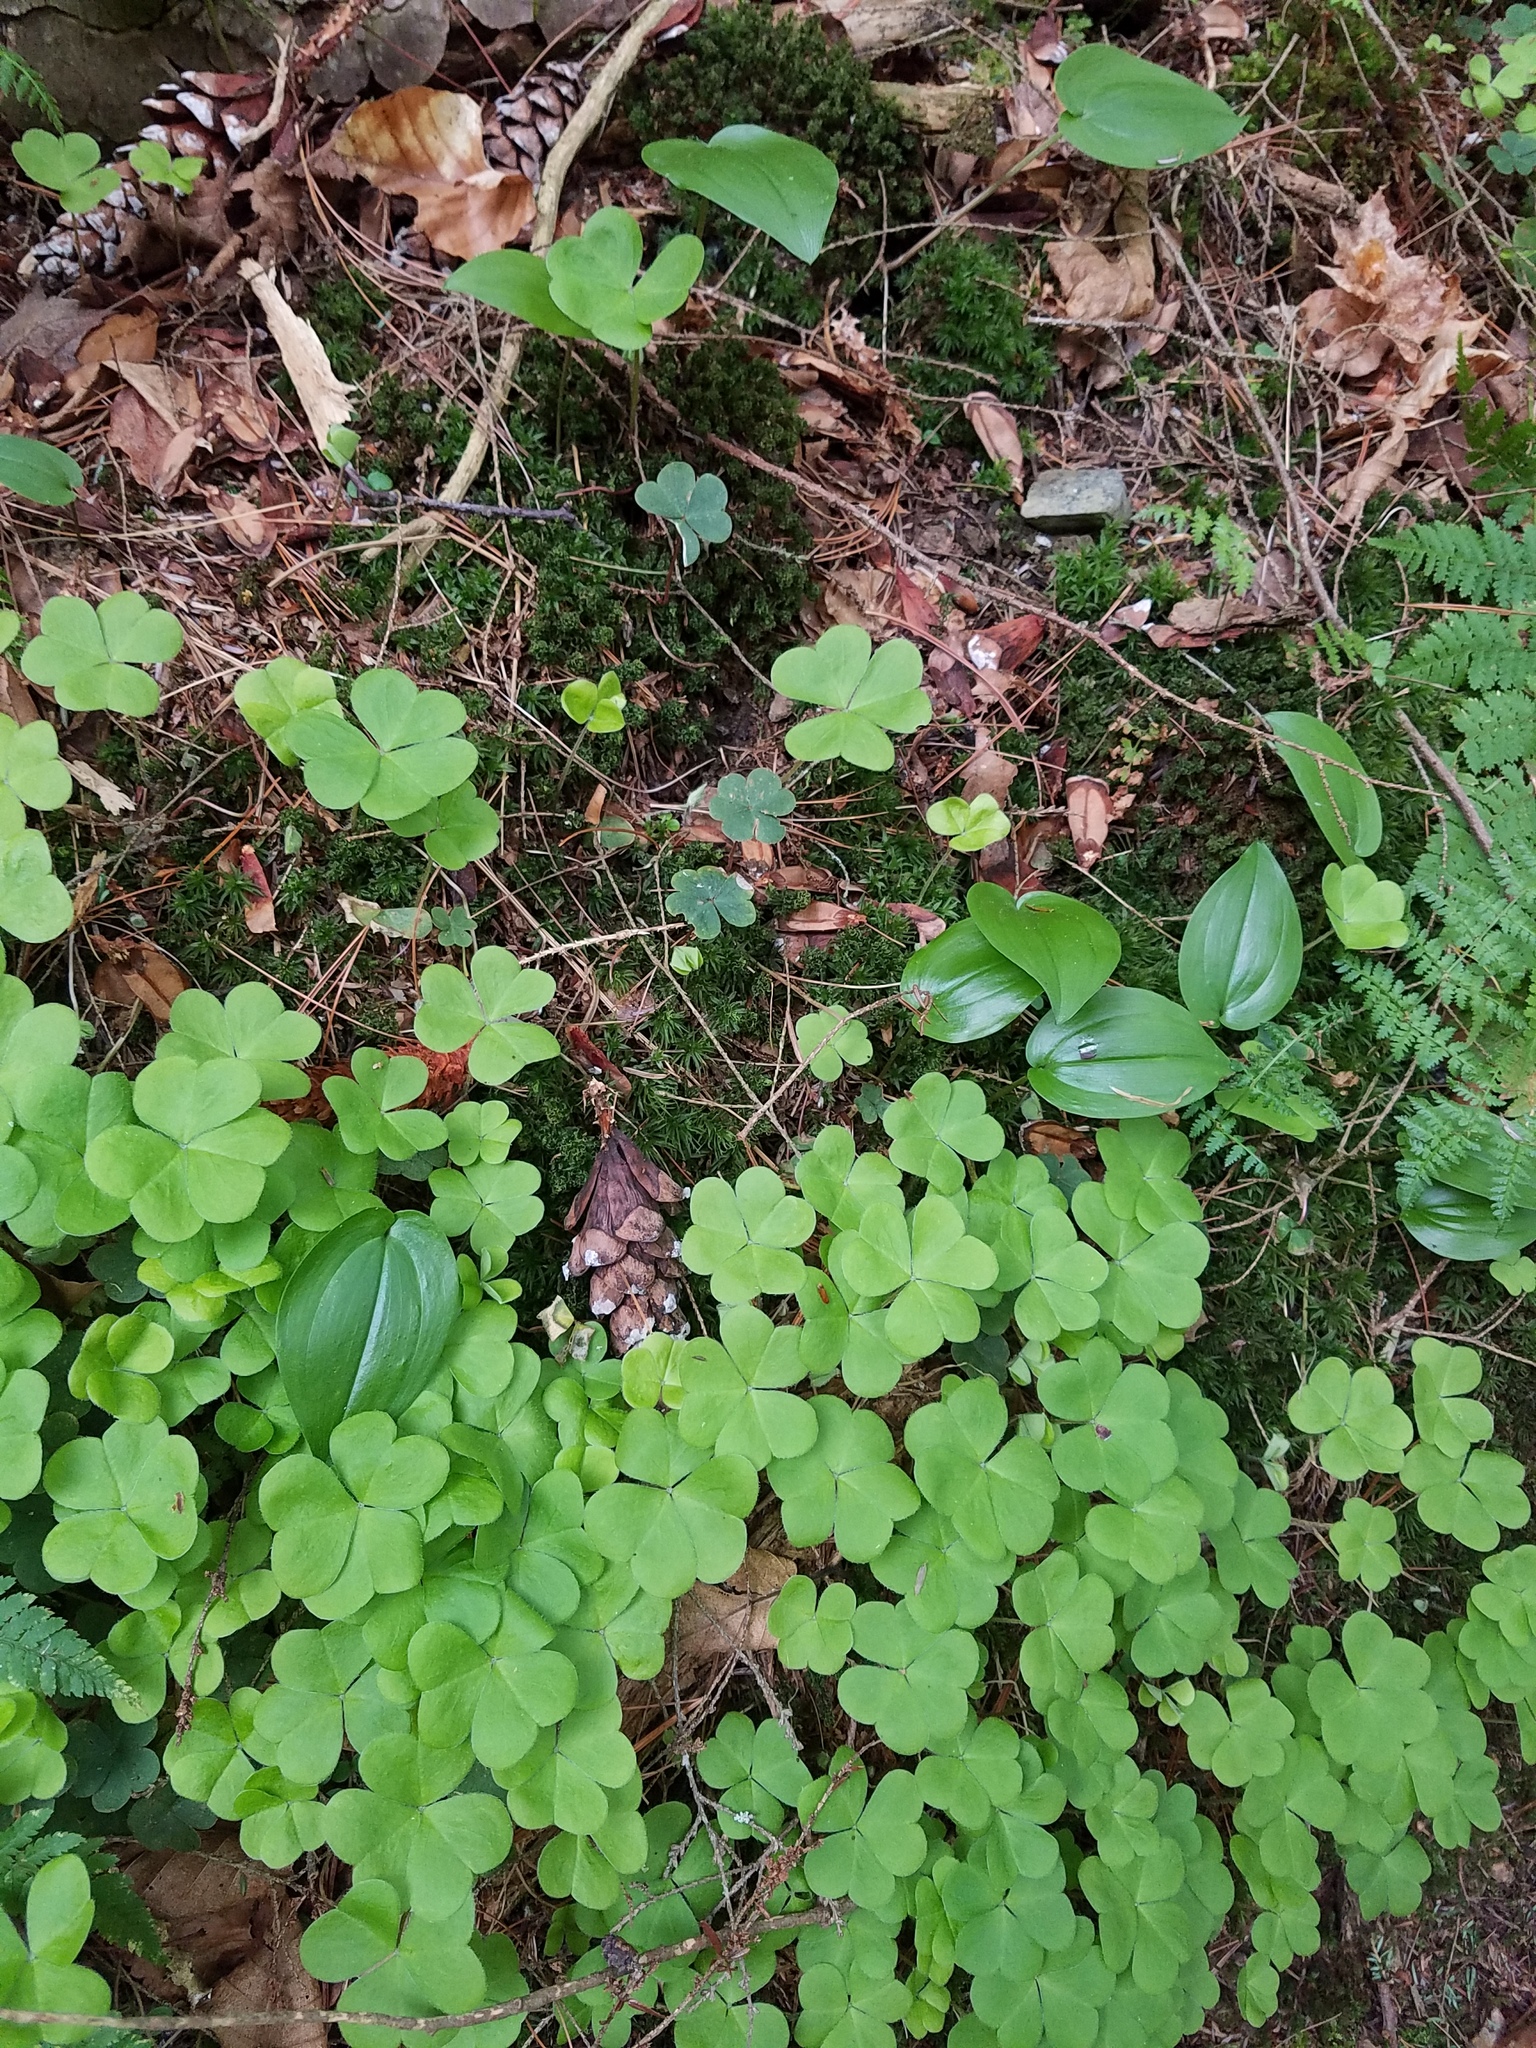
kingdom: Plantae
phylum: Tracheophyta
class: Magnoliopsida
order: Oxalidales
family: Oxalidaceae
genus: Oxalis
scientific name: Oxalis montana
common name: American wood-sorrel
